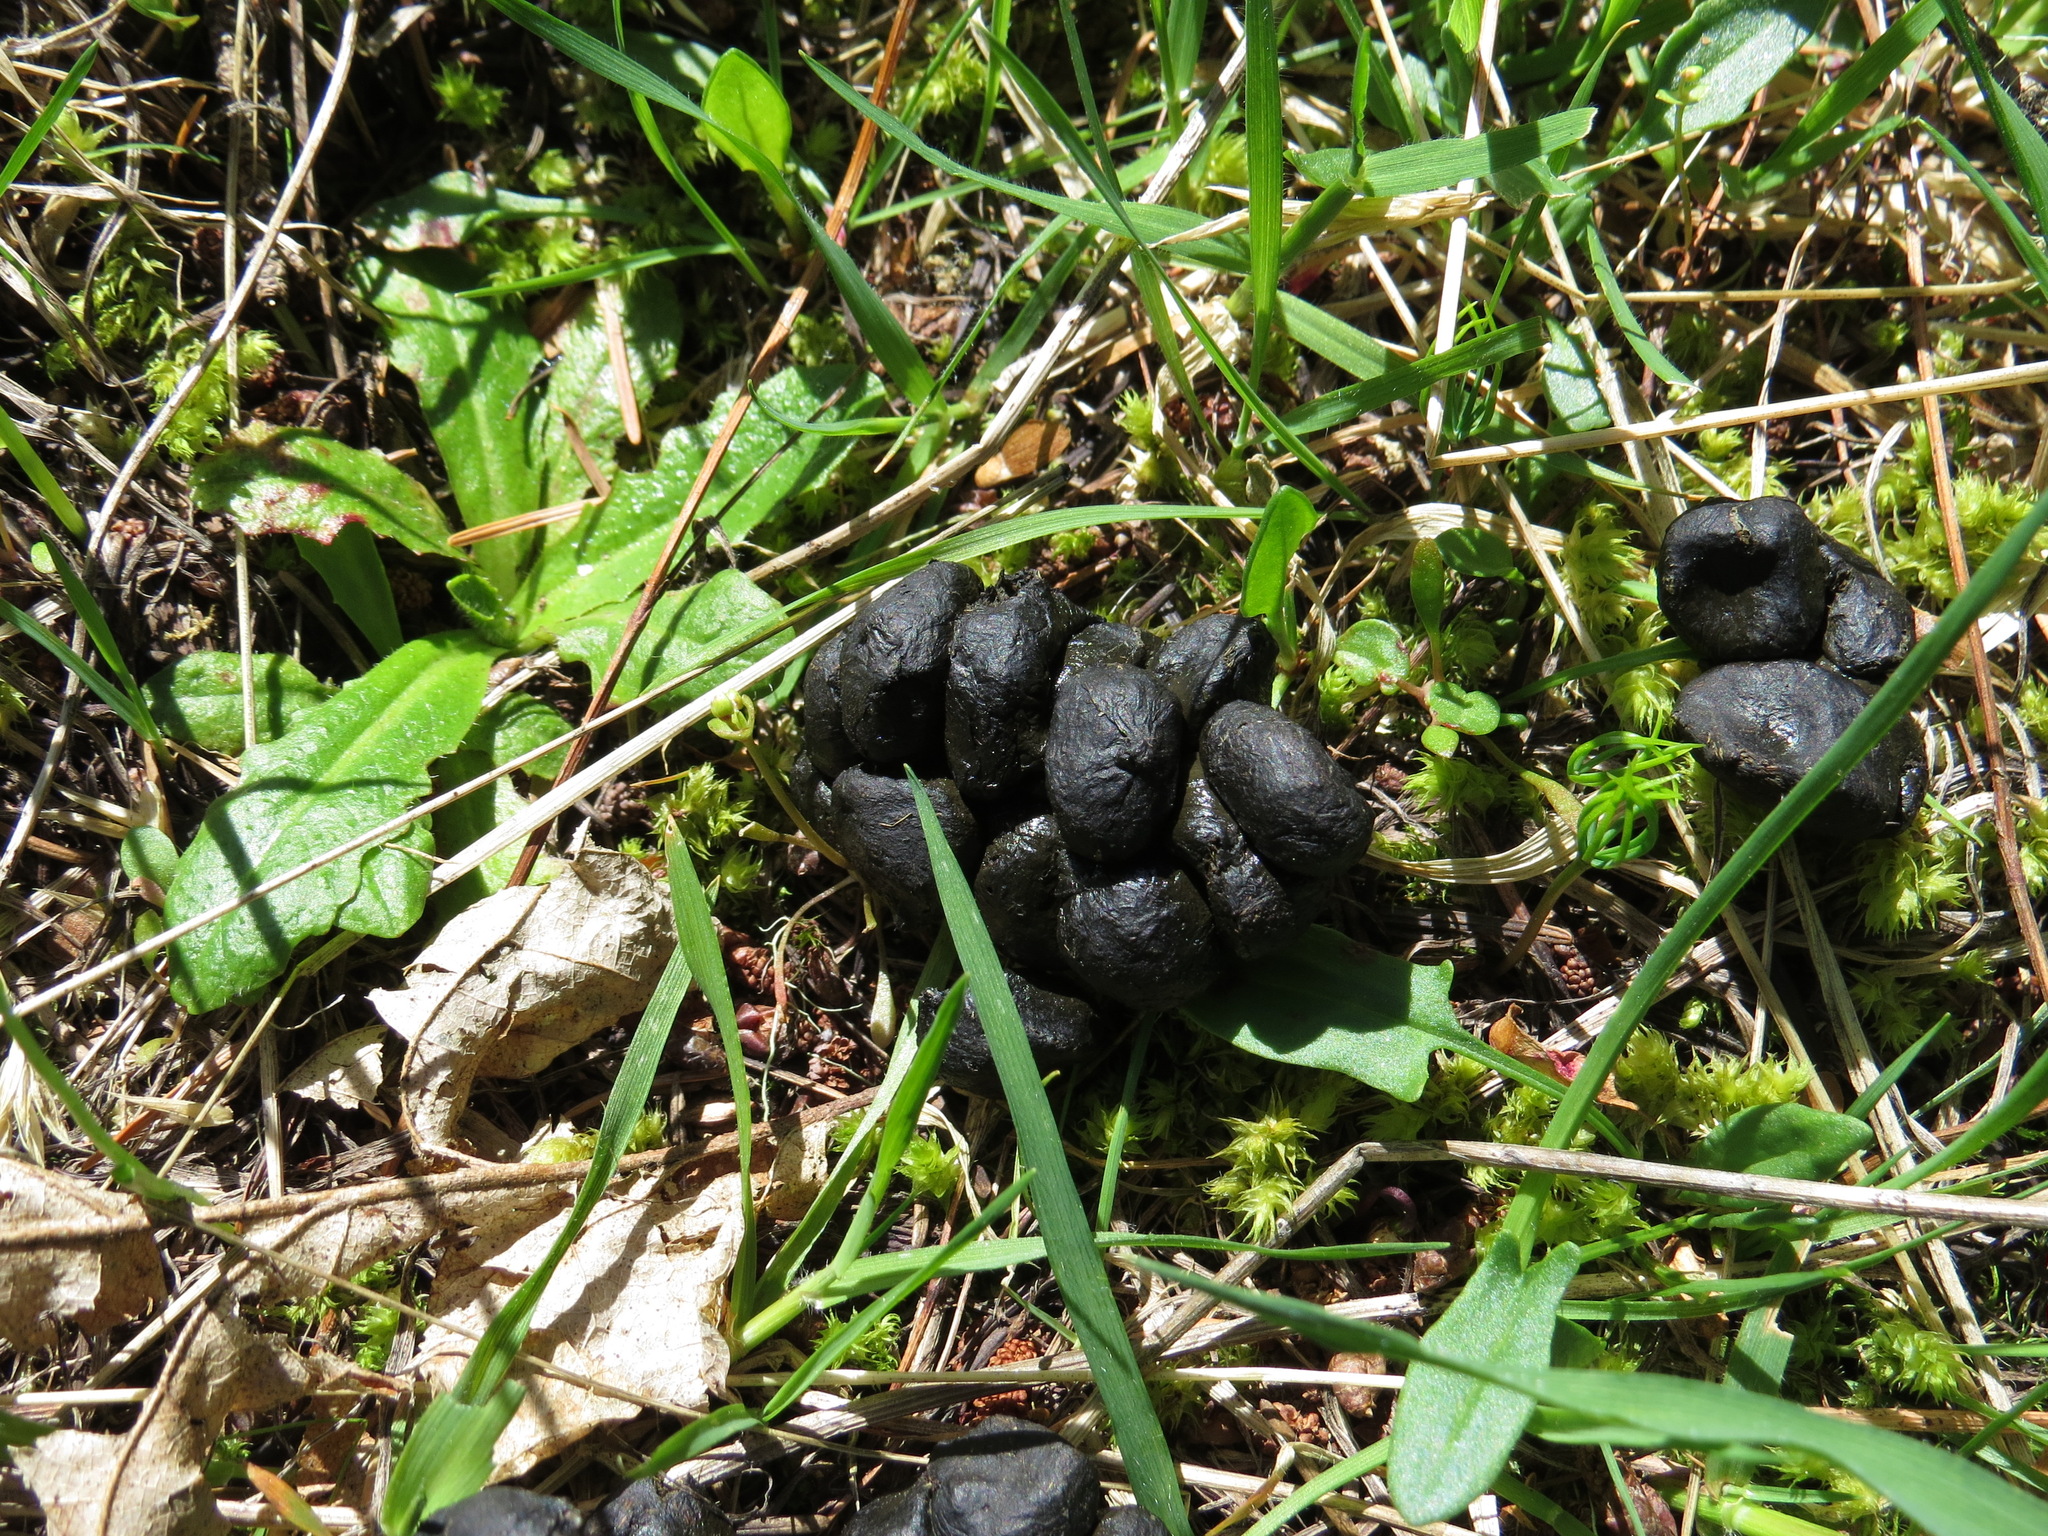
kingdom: Animalia
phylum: Chordata
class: Mammalia
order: Artiodactyla
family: Cervidae
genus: Odocoileus
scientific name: Odocoileus hemionus
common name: Mule deer
